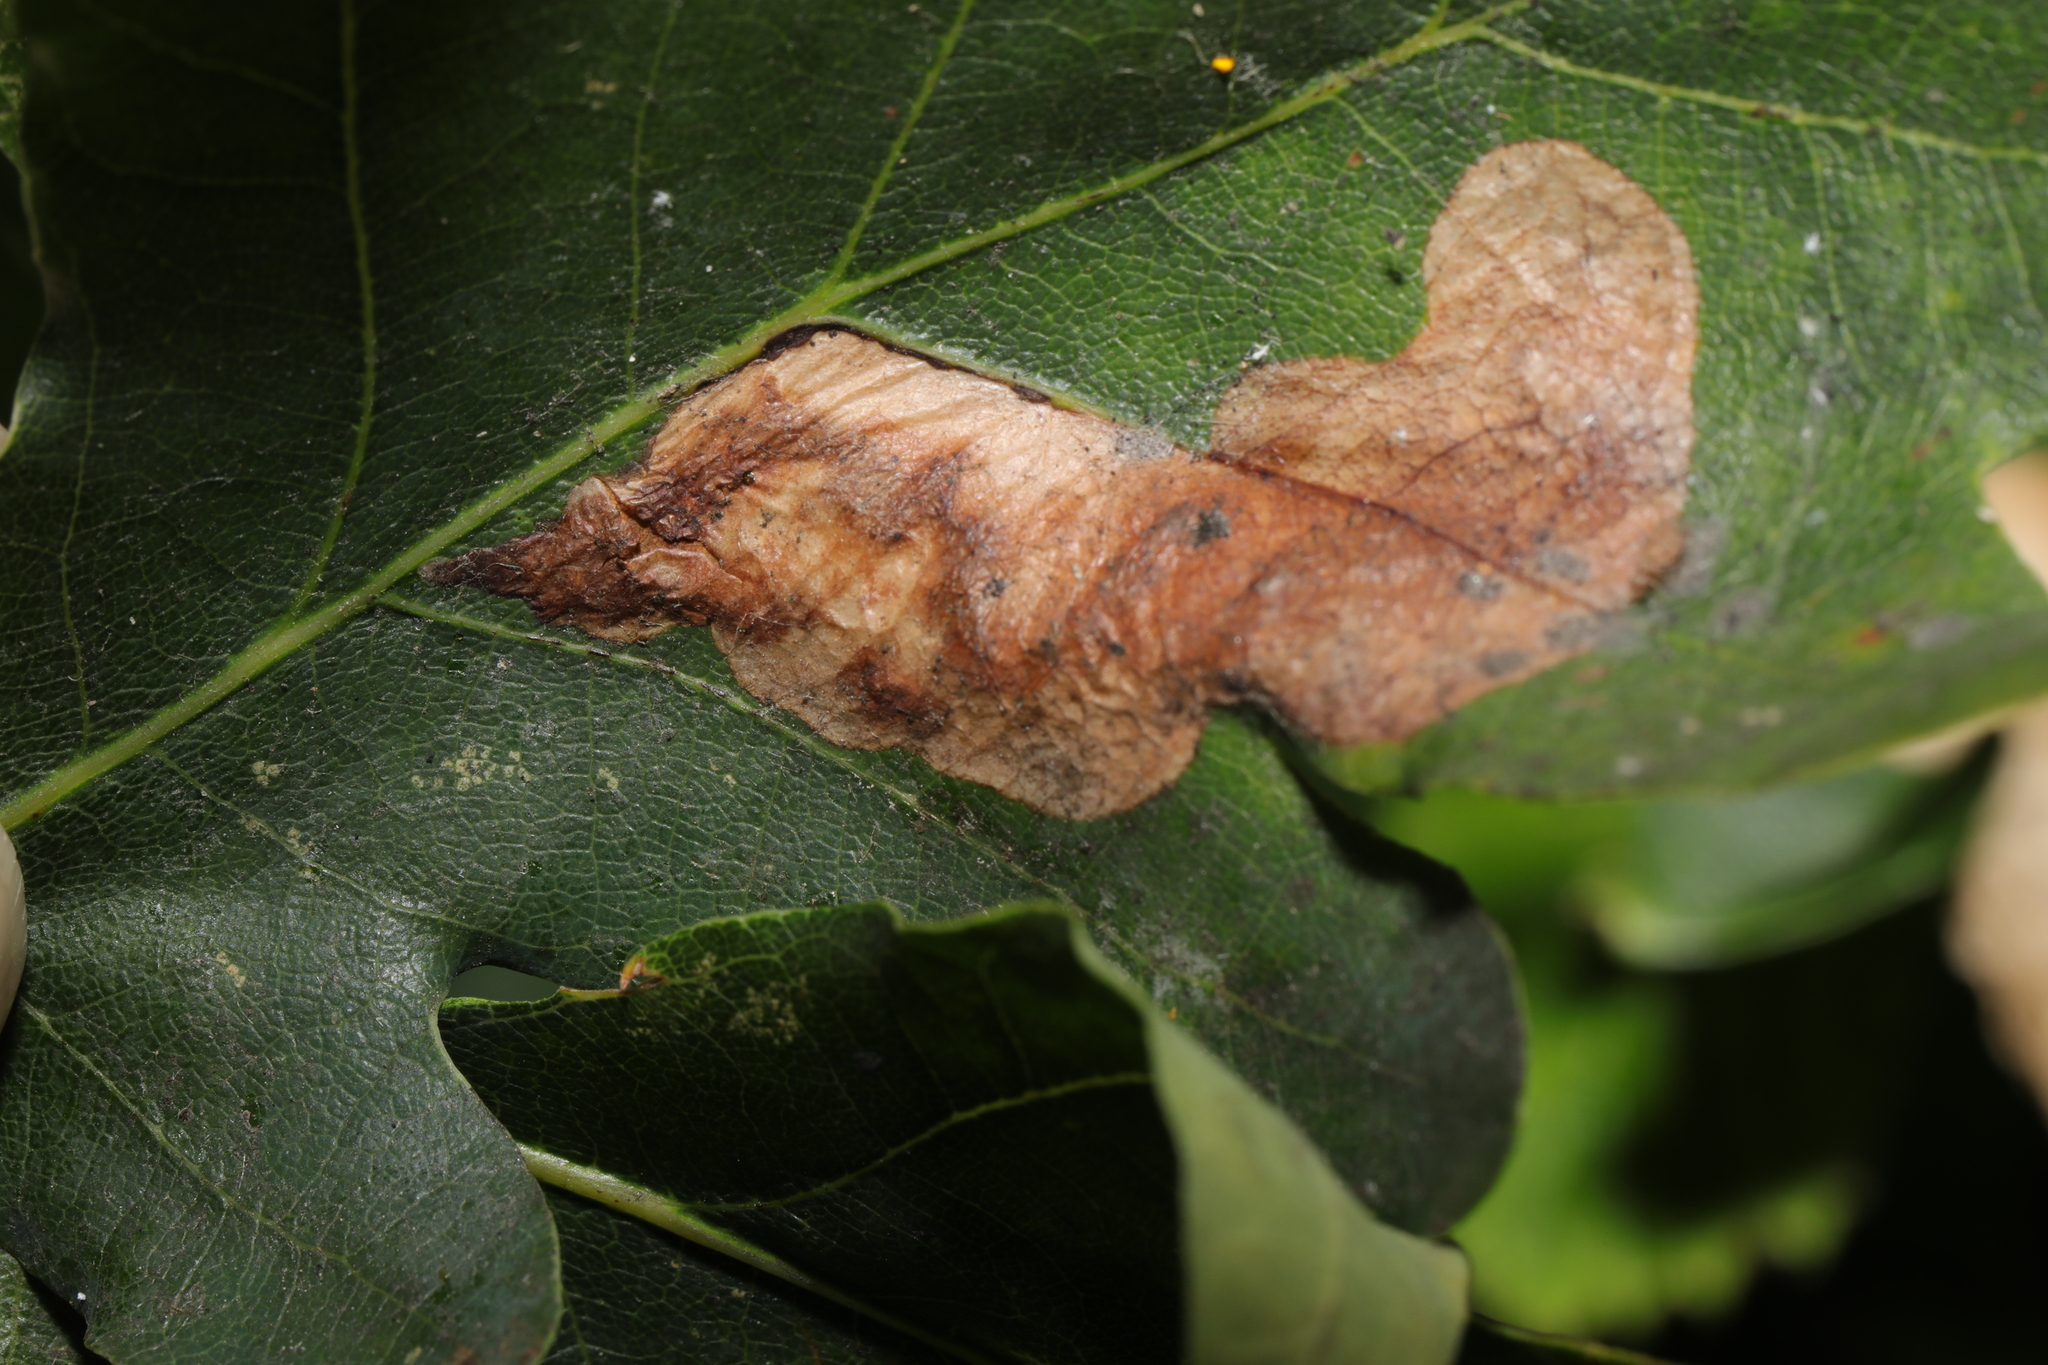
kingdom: Animalia
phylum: Arthropoda
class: Insecta
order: Hymenoptera
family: Tenthredinidae
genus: Profenusa
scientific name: Profenusa pygmaea
